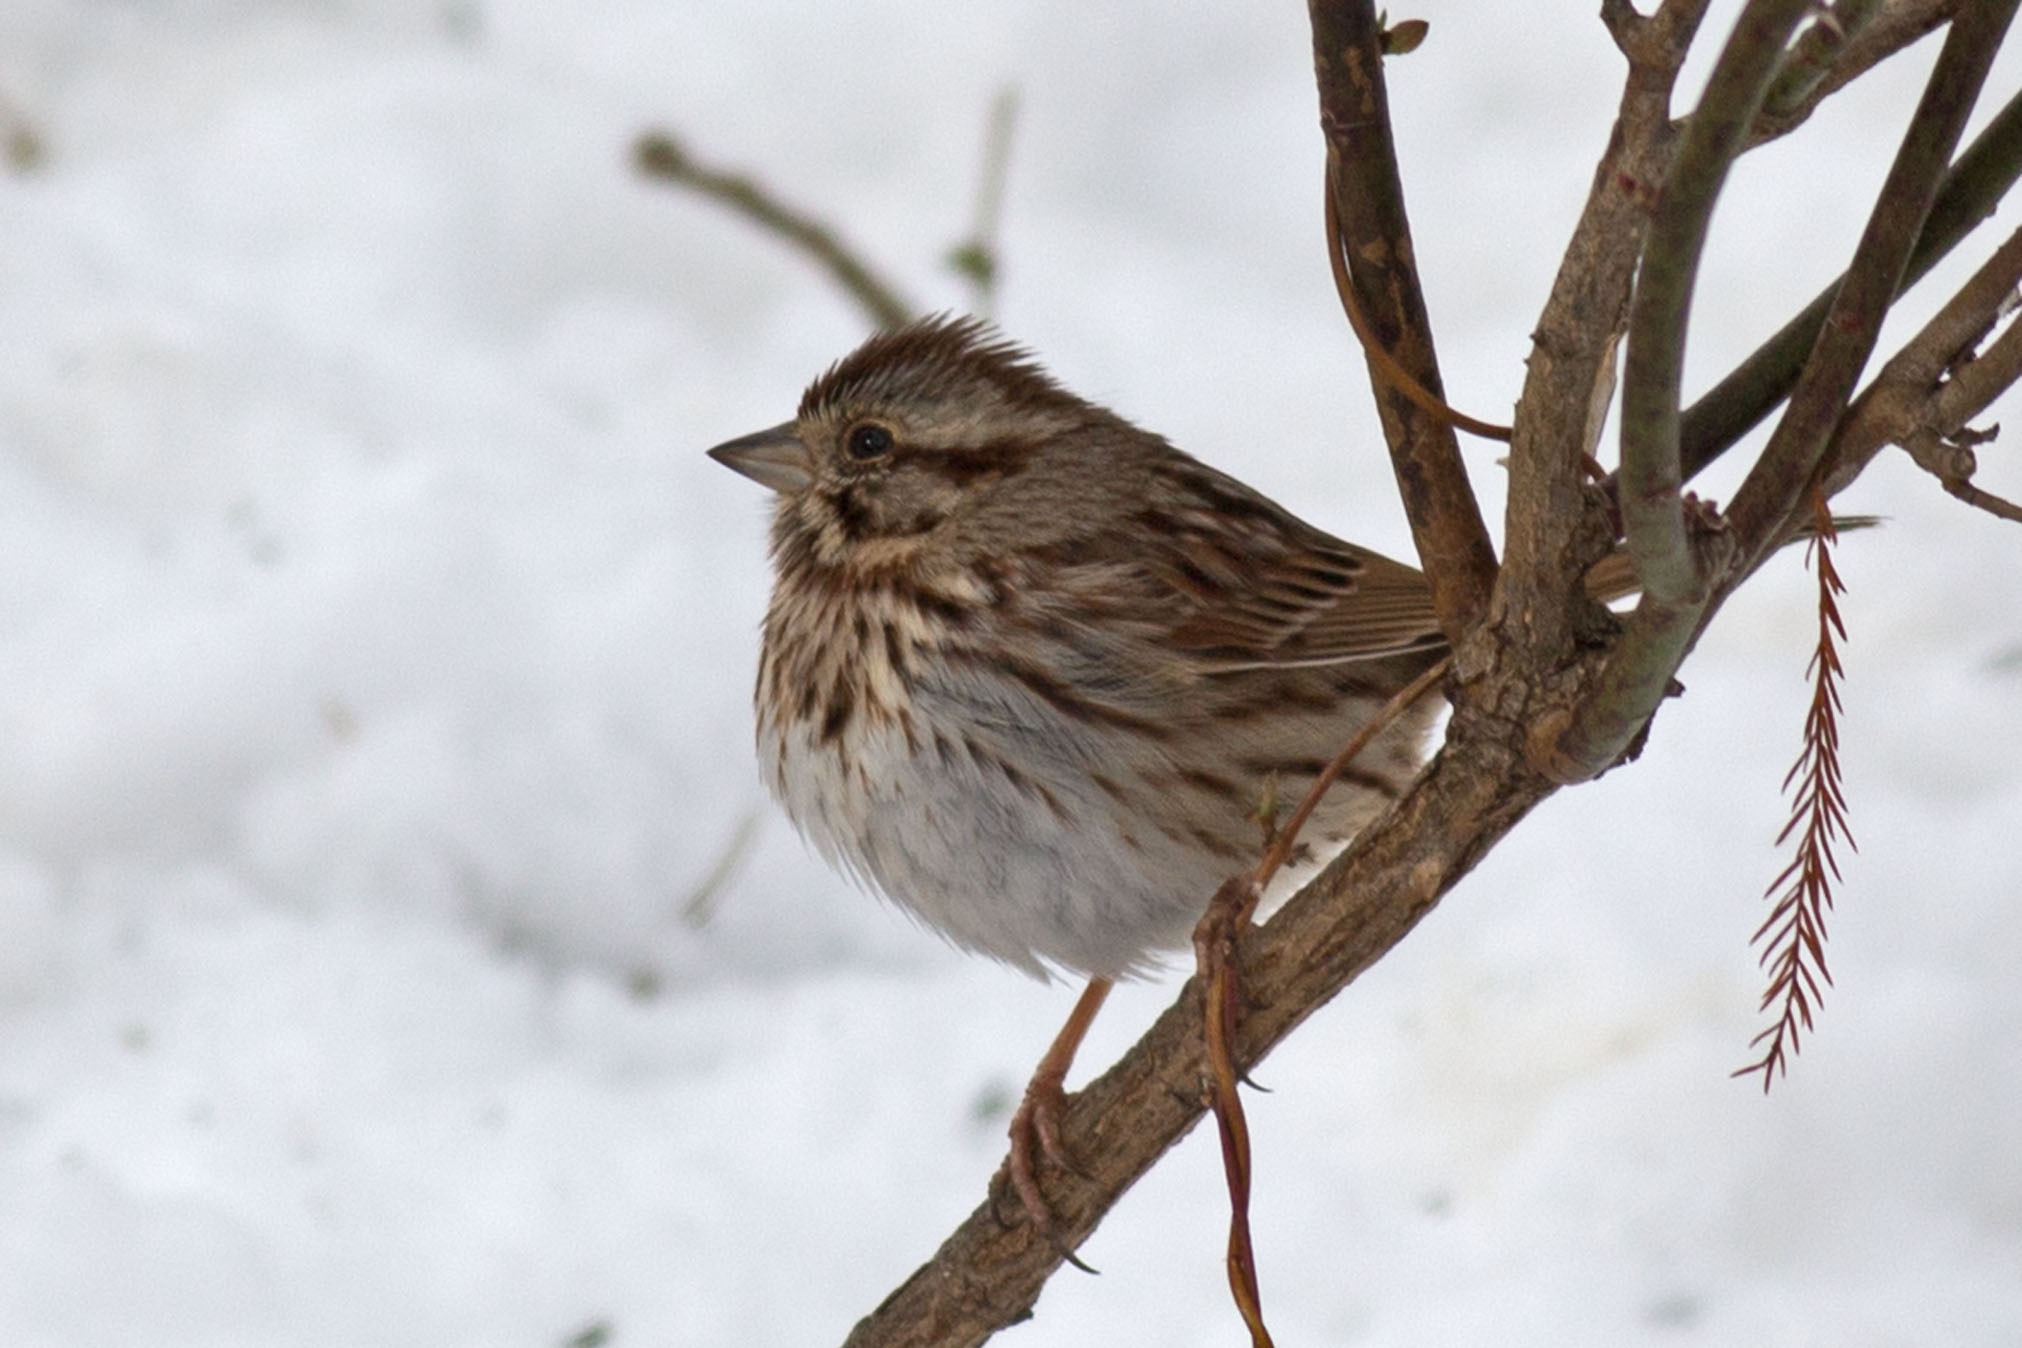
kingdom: Animalia
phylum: Chordata
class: Aves
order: Passeriformes
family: Passerellidae
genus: Melospiza
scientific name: Melospiza melodia
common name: Song sparrow
